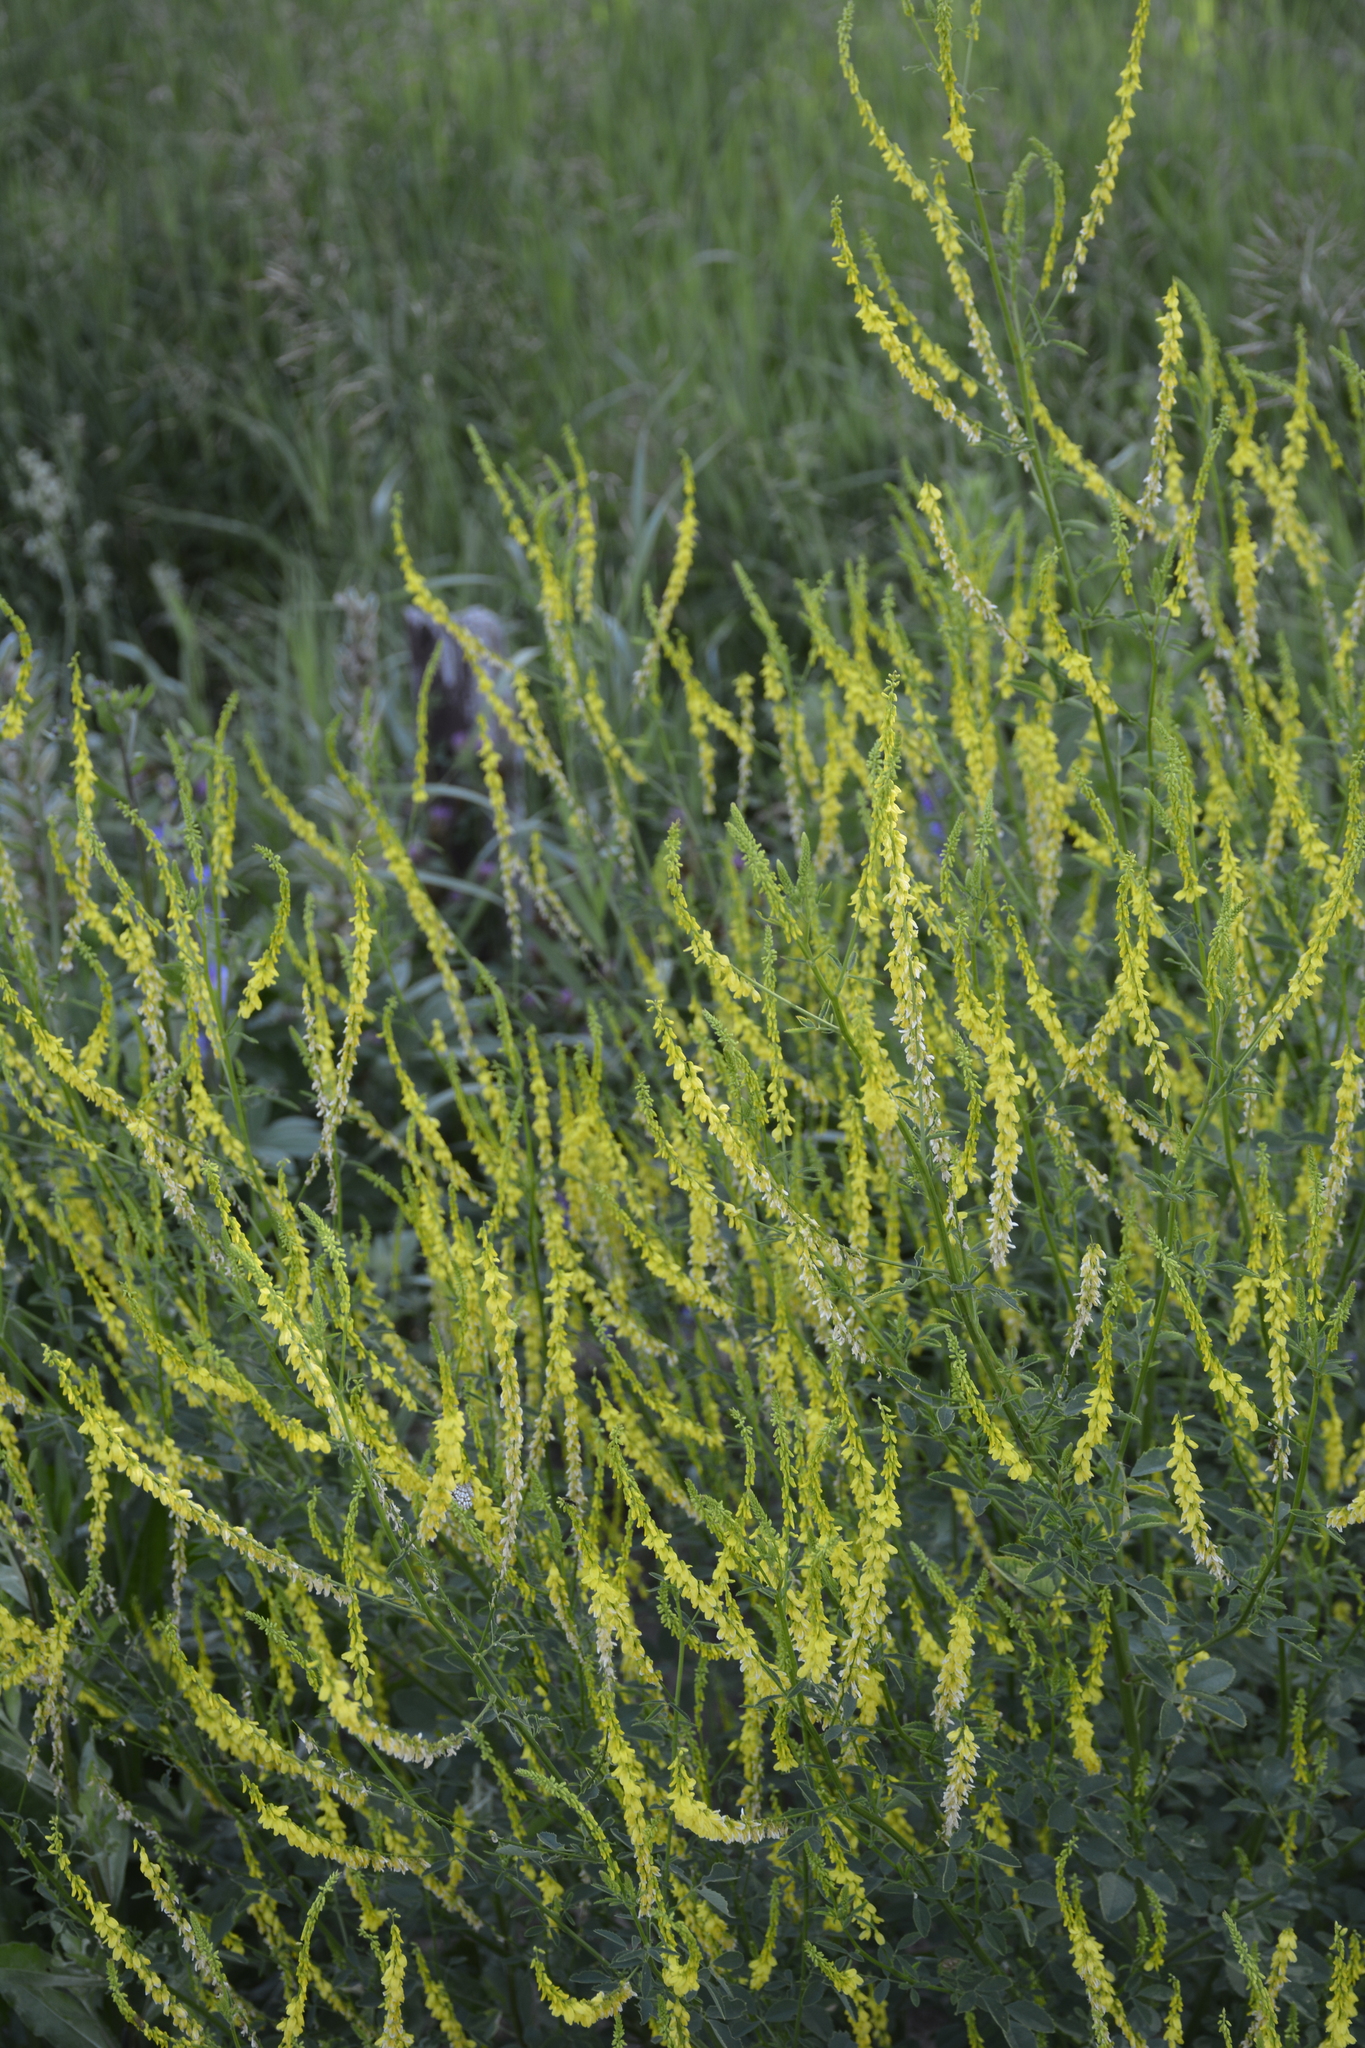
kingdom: Plantae
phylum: Tracheophyta
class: Magnoliopsida
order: Fabales
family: Fabaceae
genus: Melilotus
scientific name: Melilotus officinalis
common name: Sweetclover
